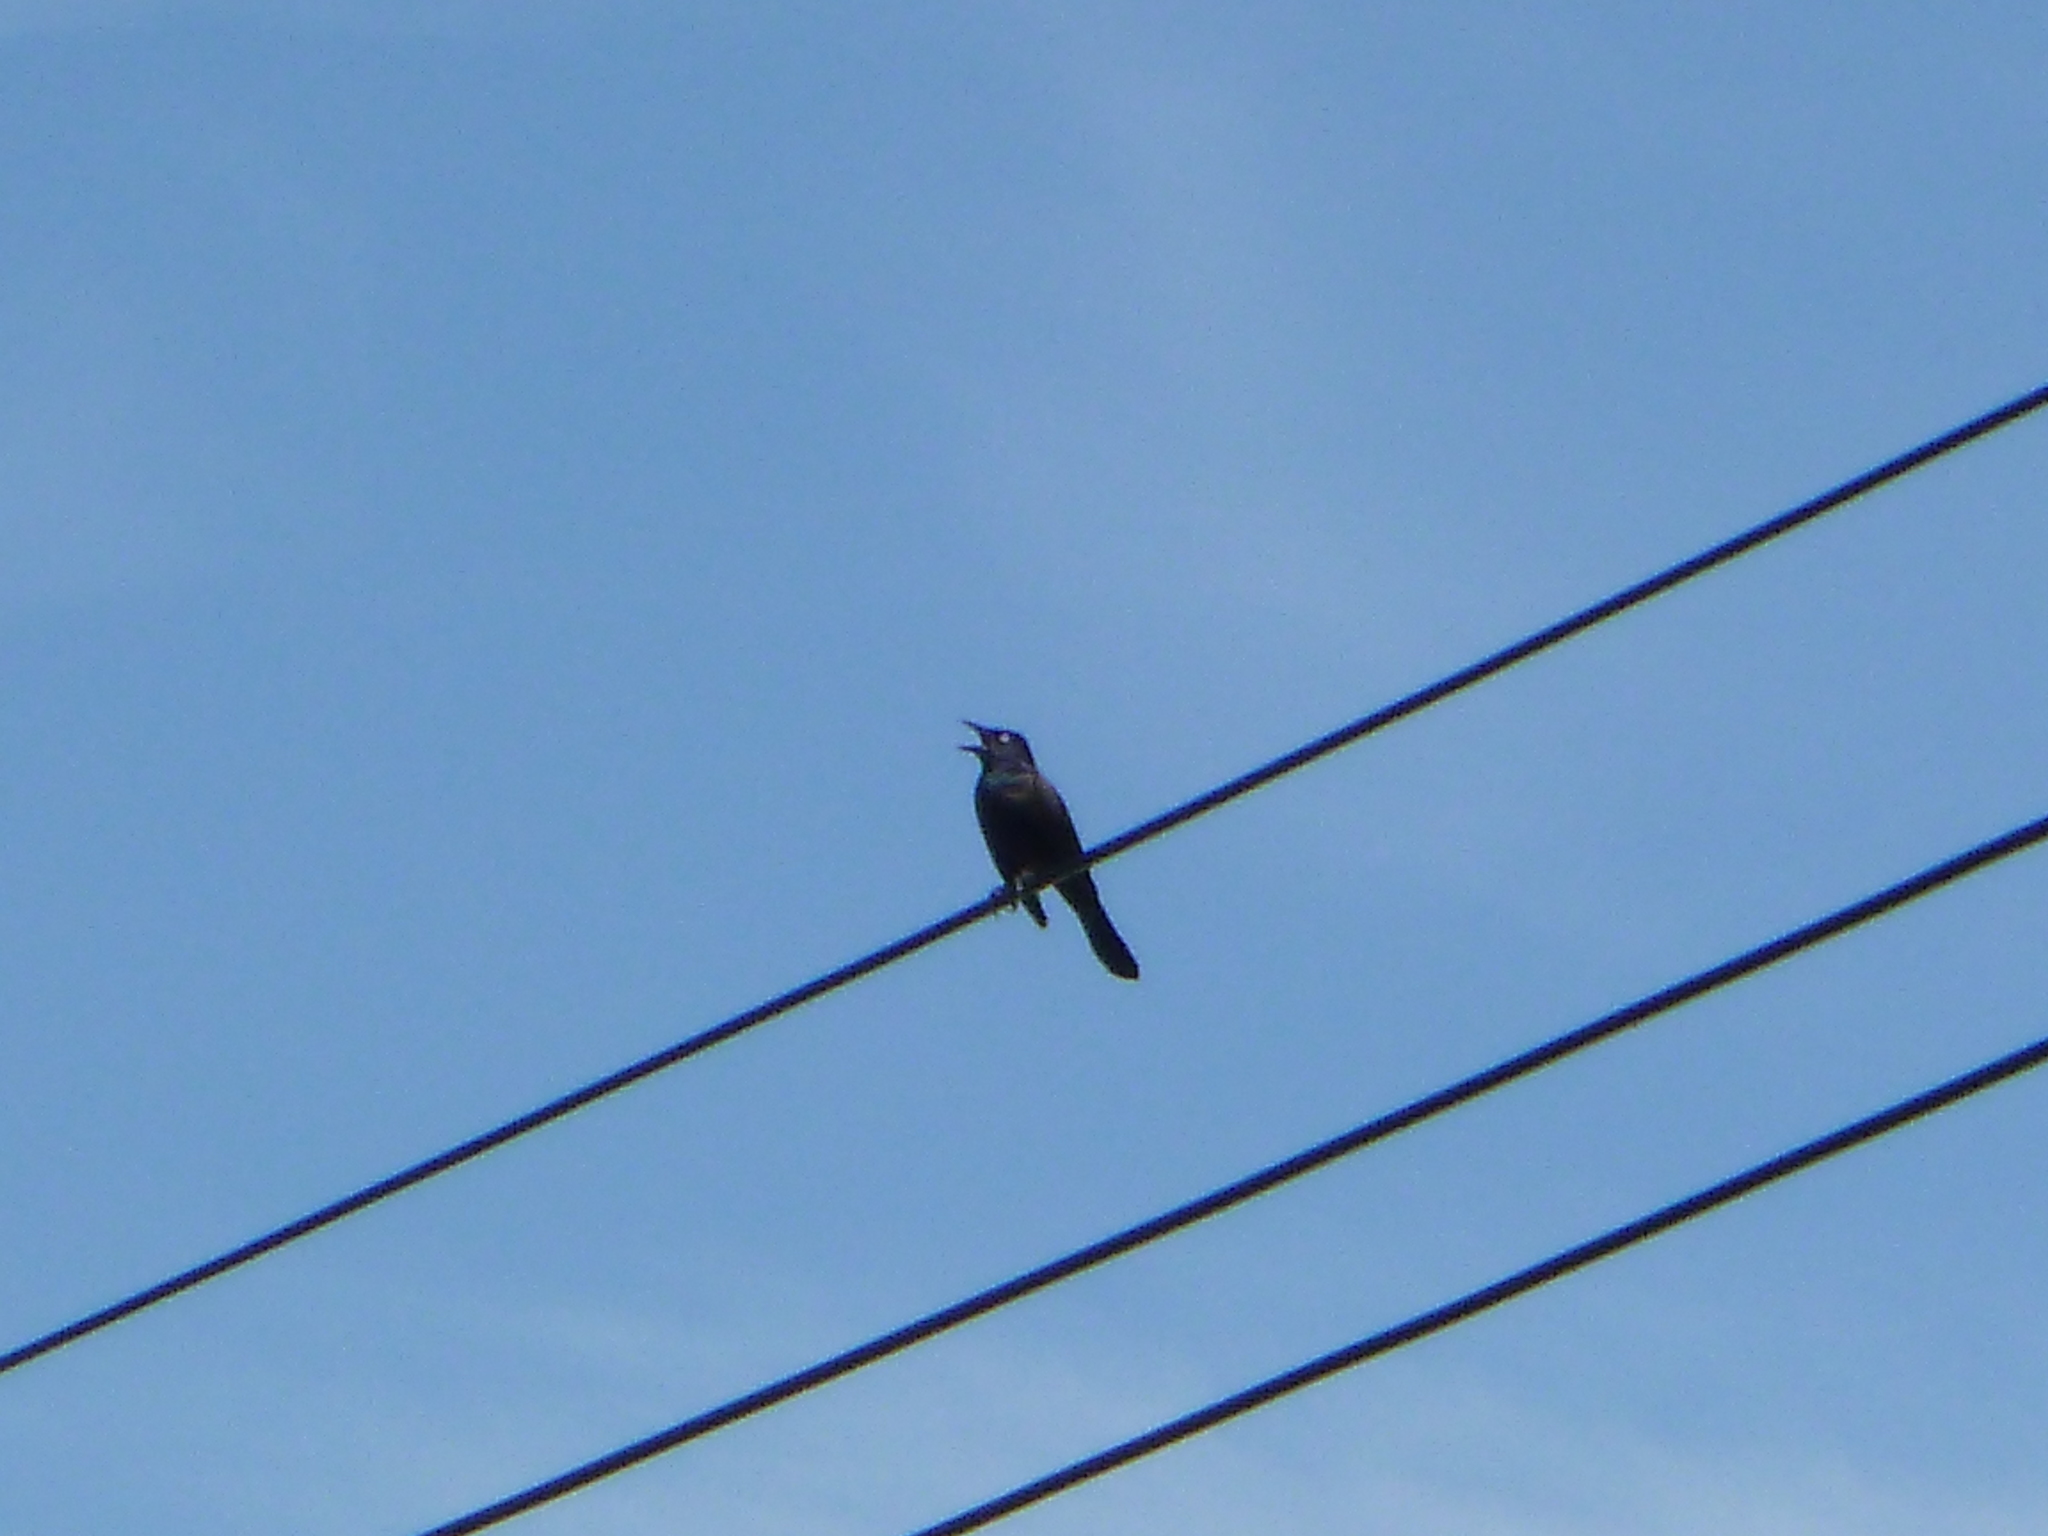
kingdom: Animalia
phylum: Chordata
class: Aves
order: Passeriformes
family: Icteridae
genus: Quiscalus
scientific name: Quiscalus quiscula
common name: Common grackle
